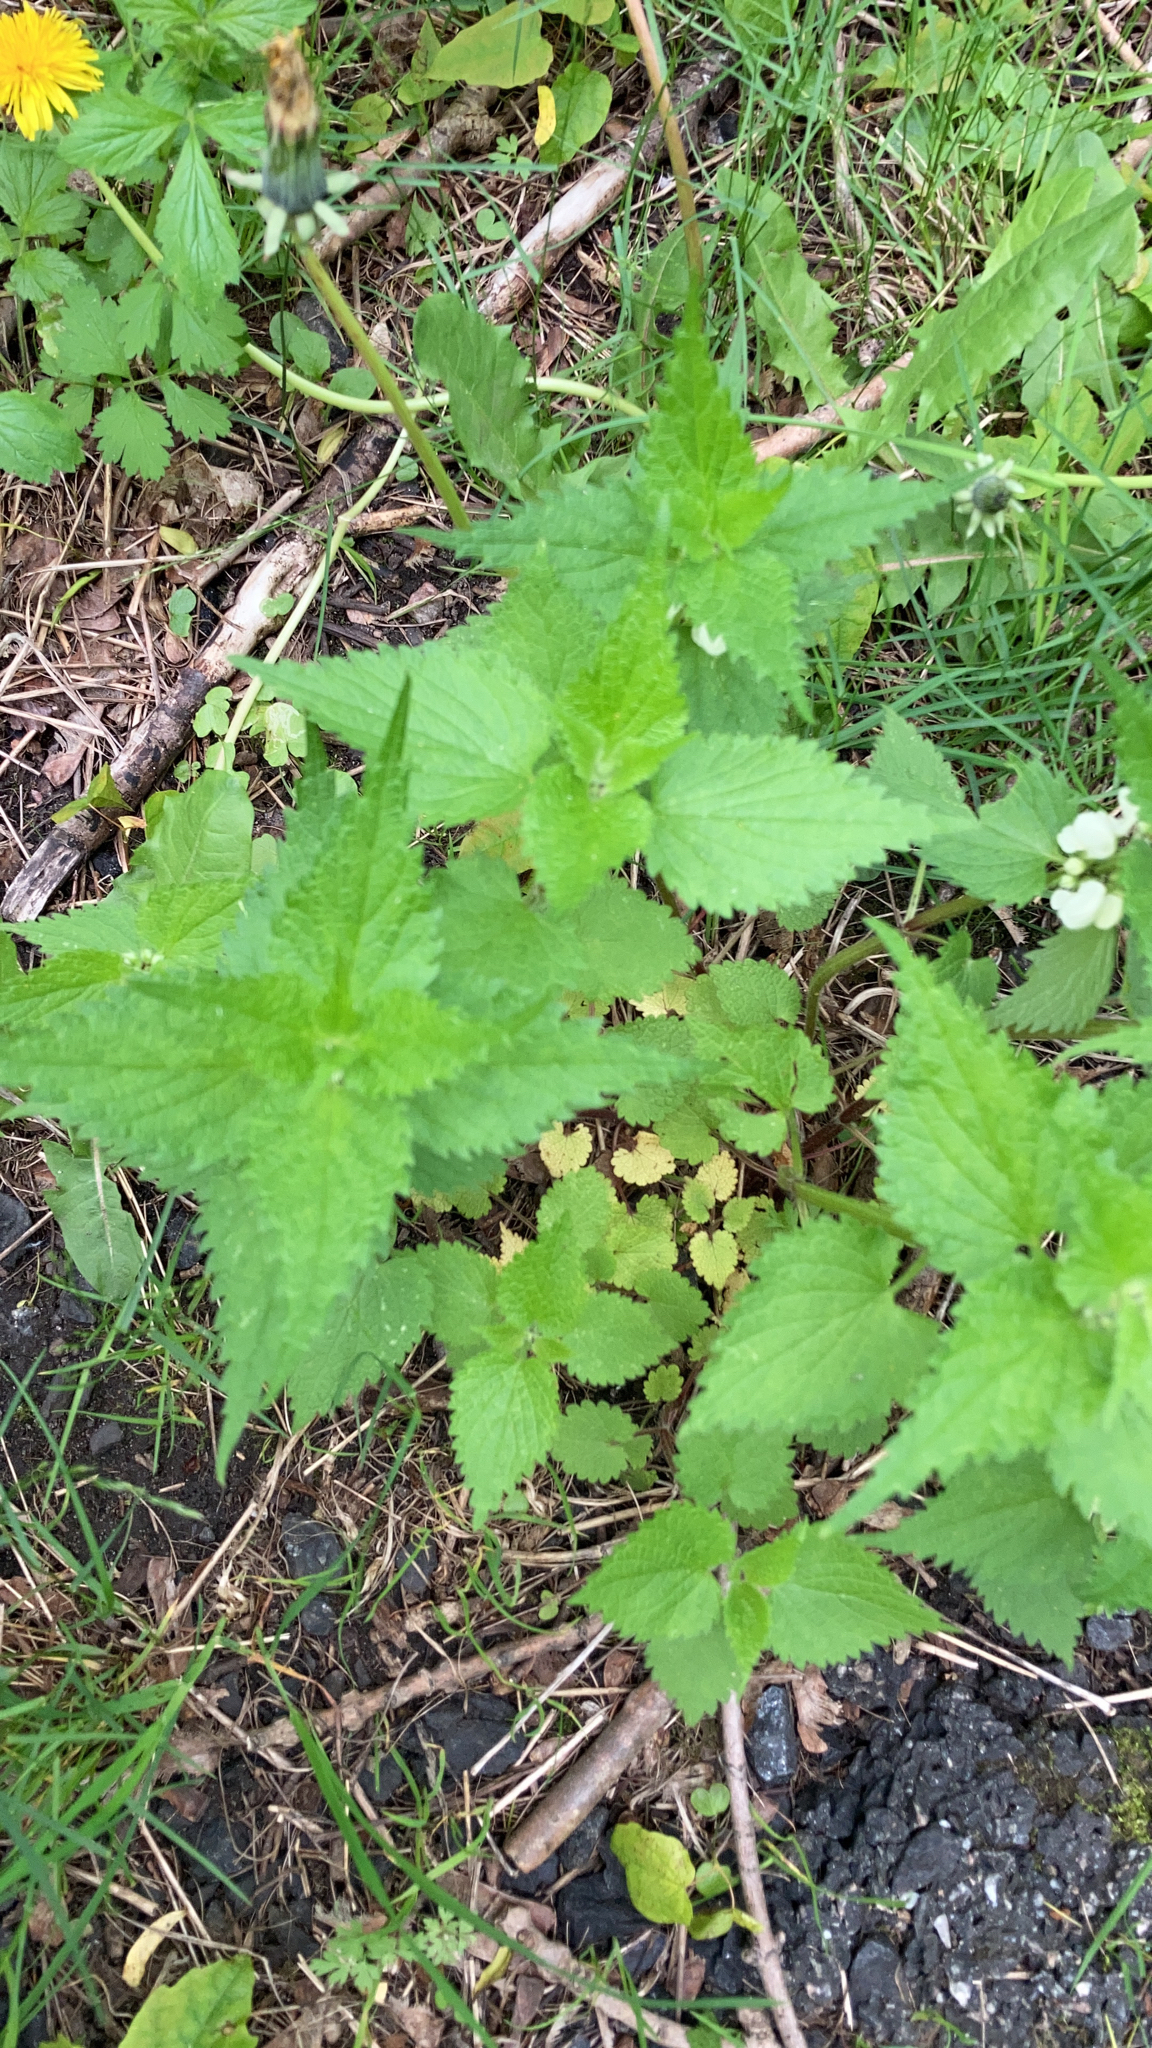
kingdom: Plantae
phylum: Tracheophyta
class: Magnoliopsida
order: Lamiales
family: Lamiaceae
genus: Lamium
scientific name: Lamium album
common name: White dead-nettle
